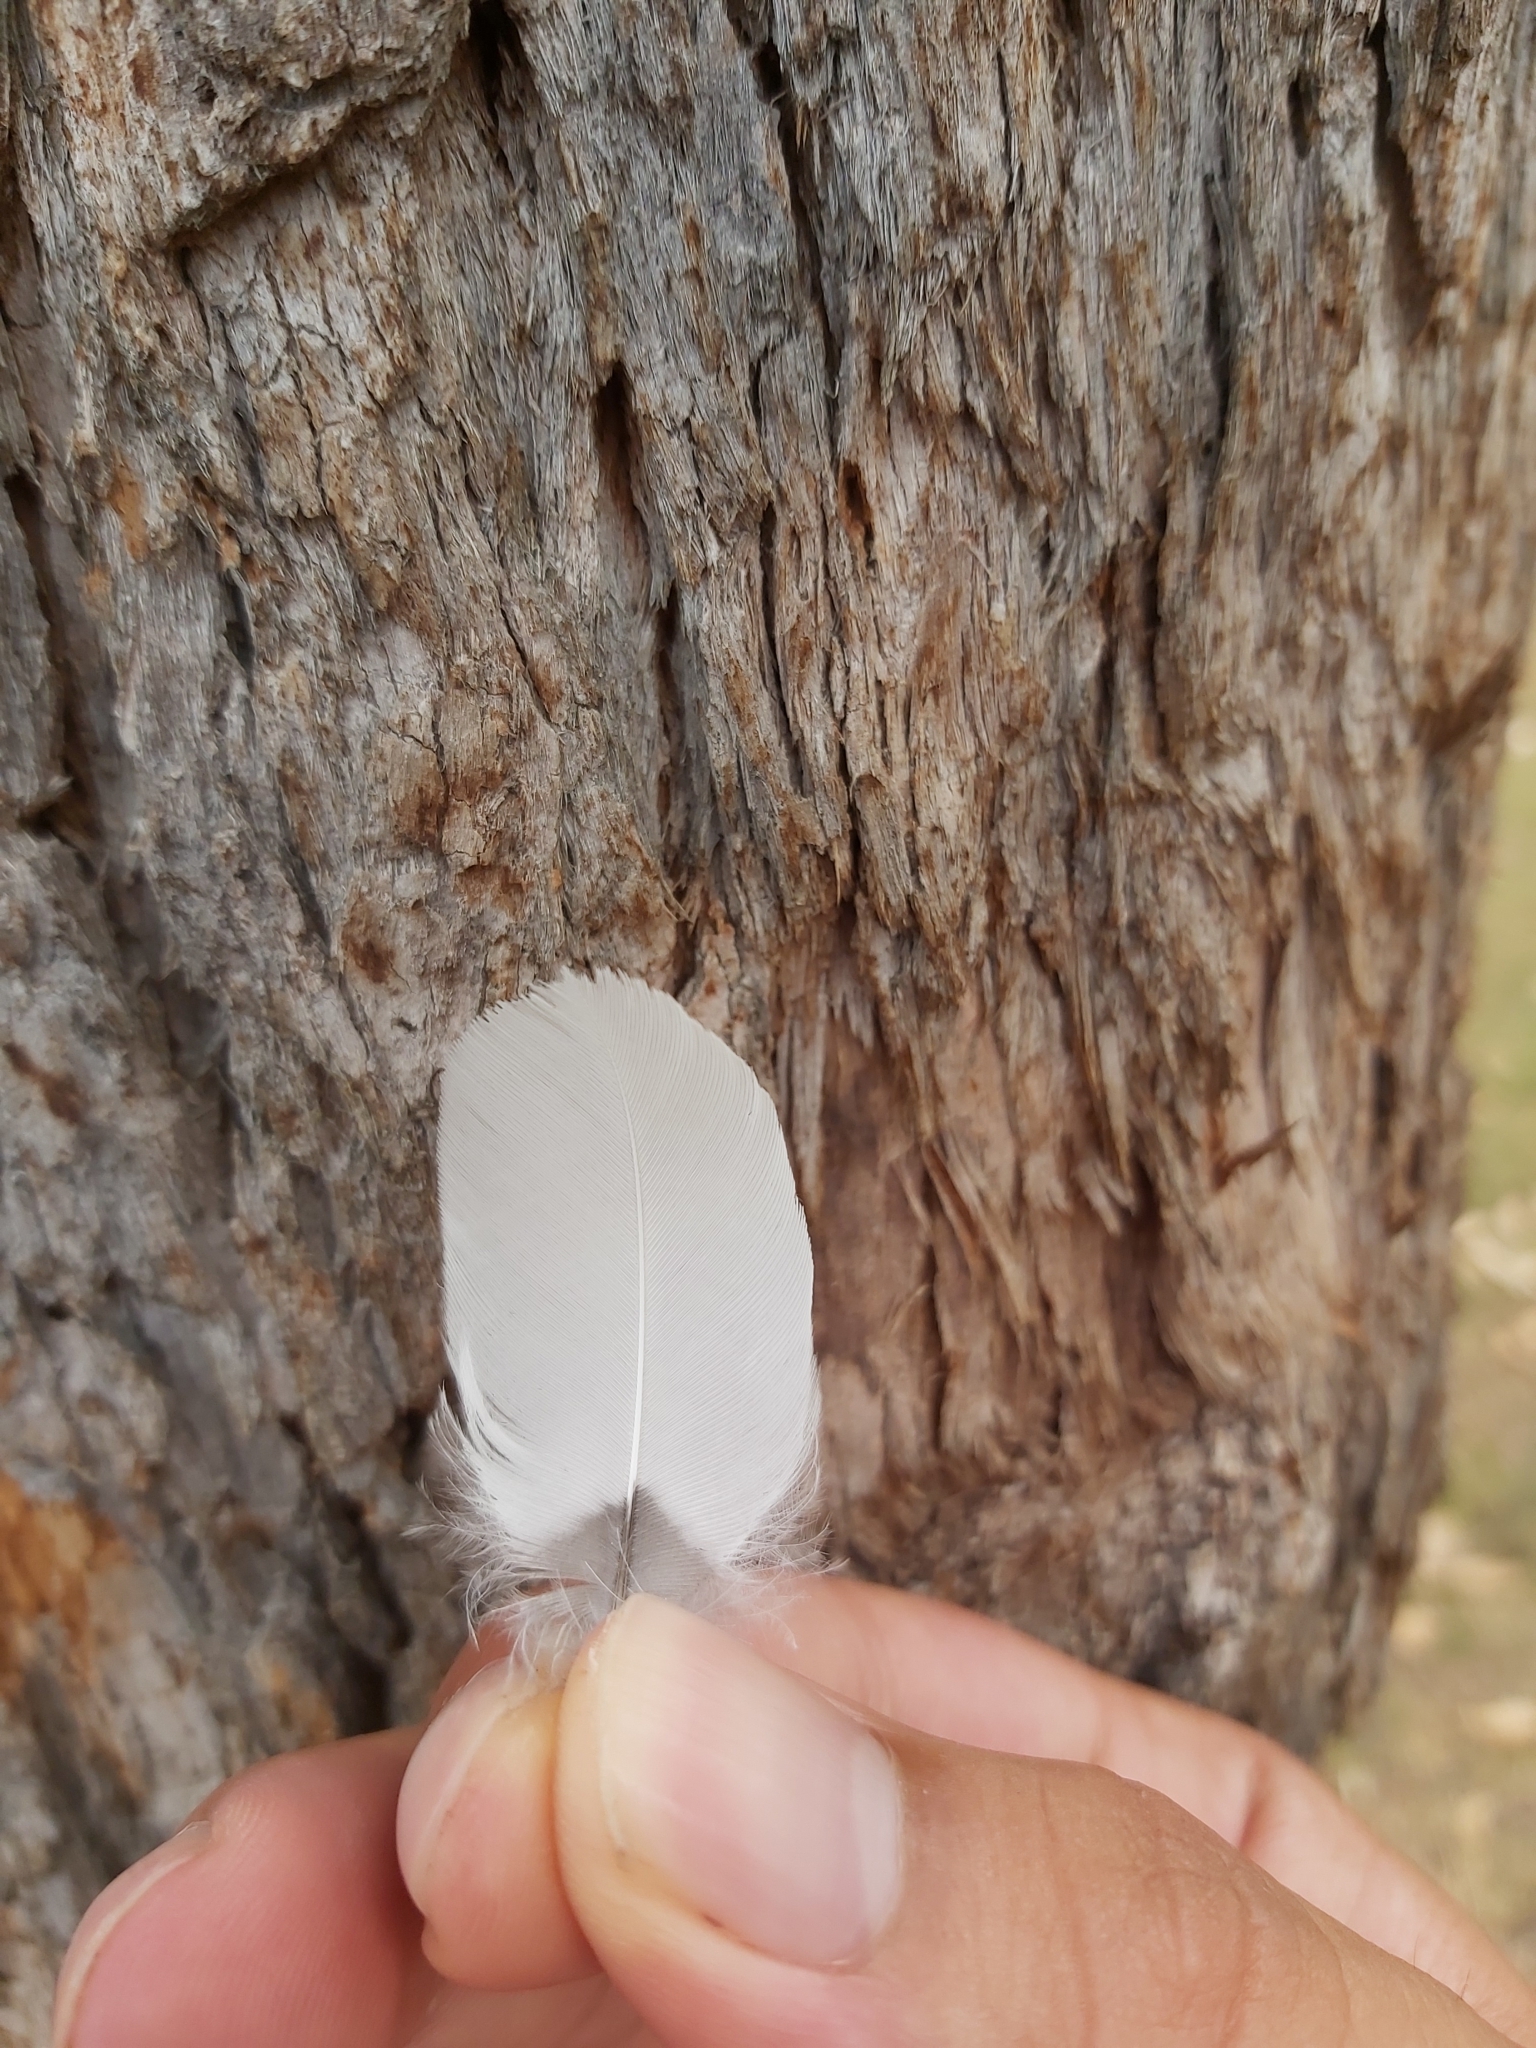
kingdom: Animalia
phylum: Chordata
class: Aves
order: Passeriformes
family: Cracticidae
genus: Gymnorhina
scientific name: Gymnorhina tibicen
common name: Australian magpie
